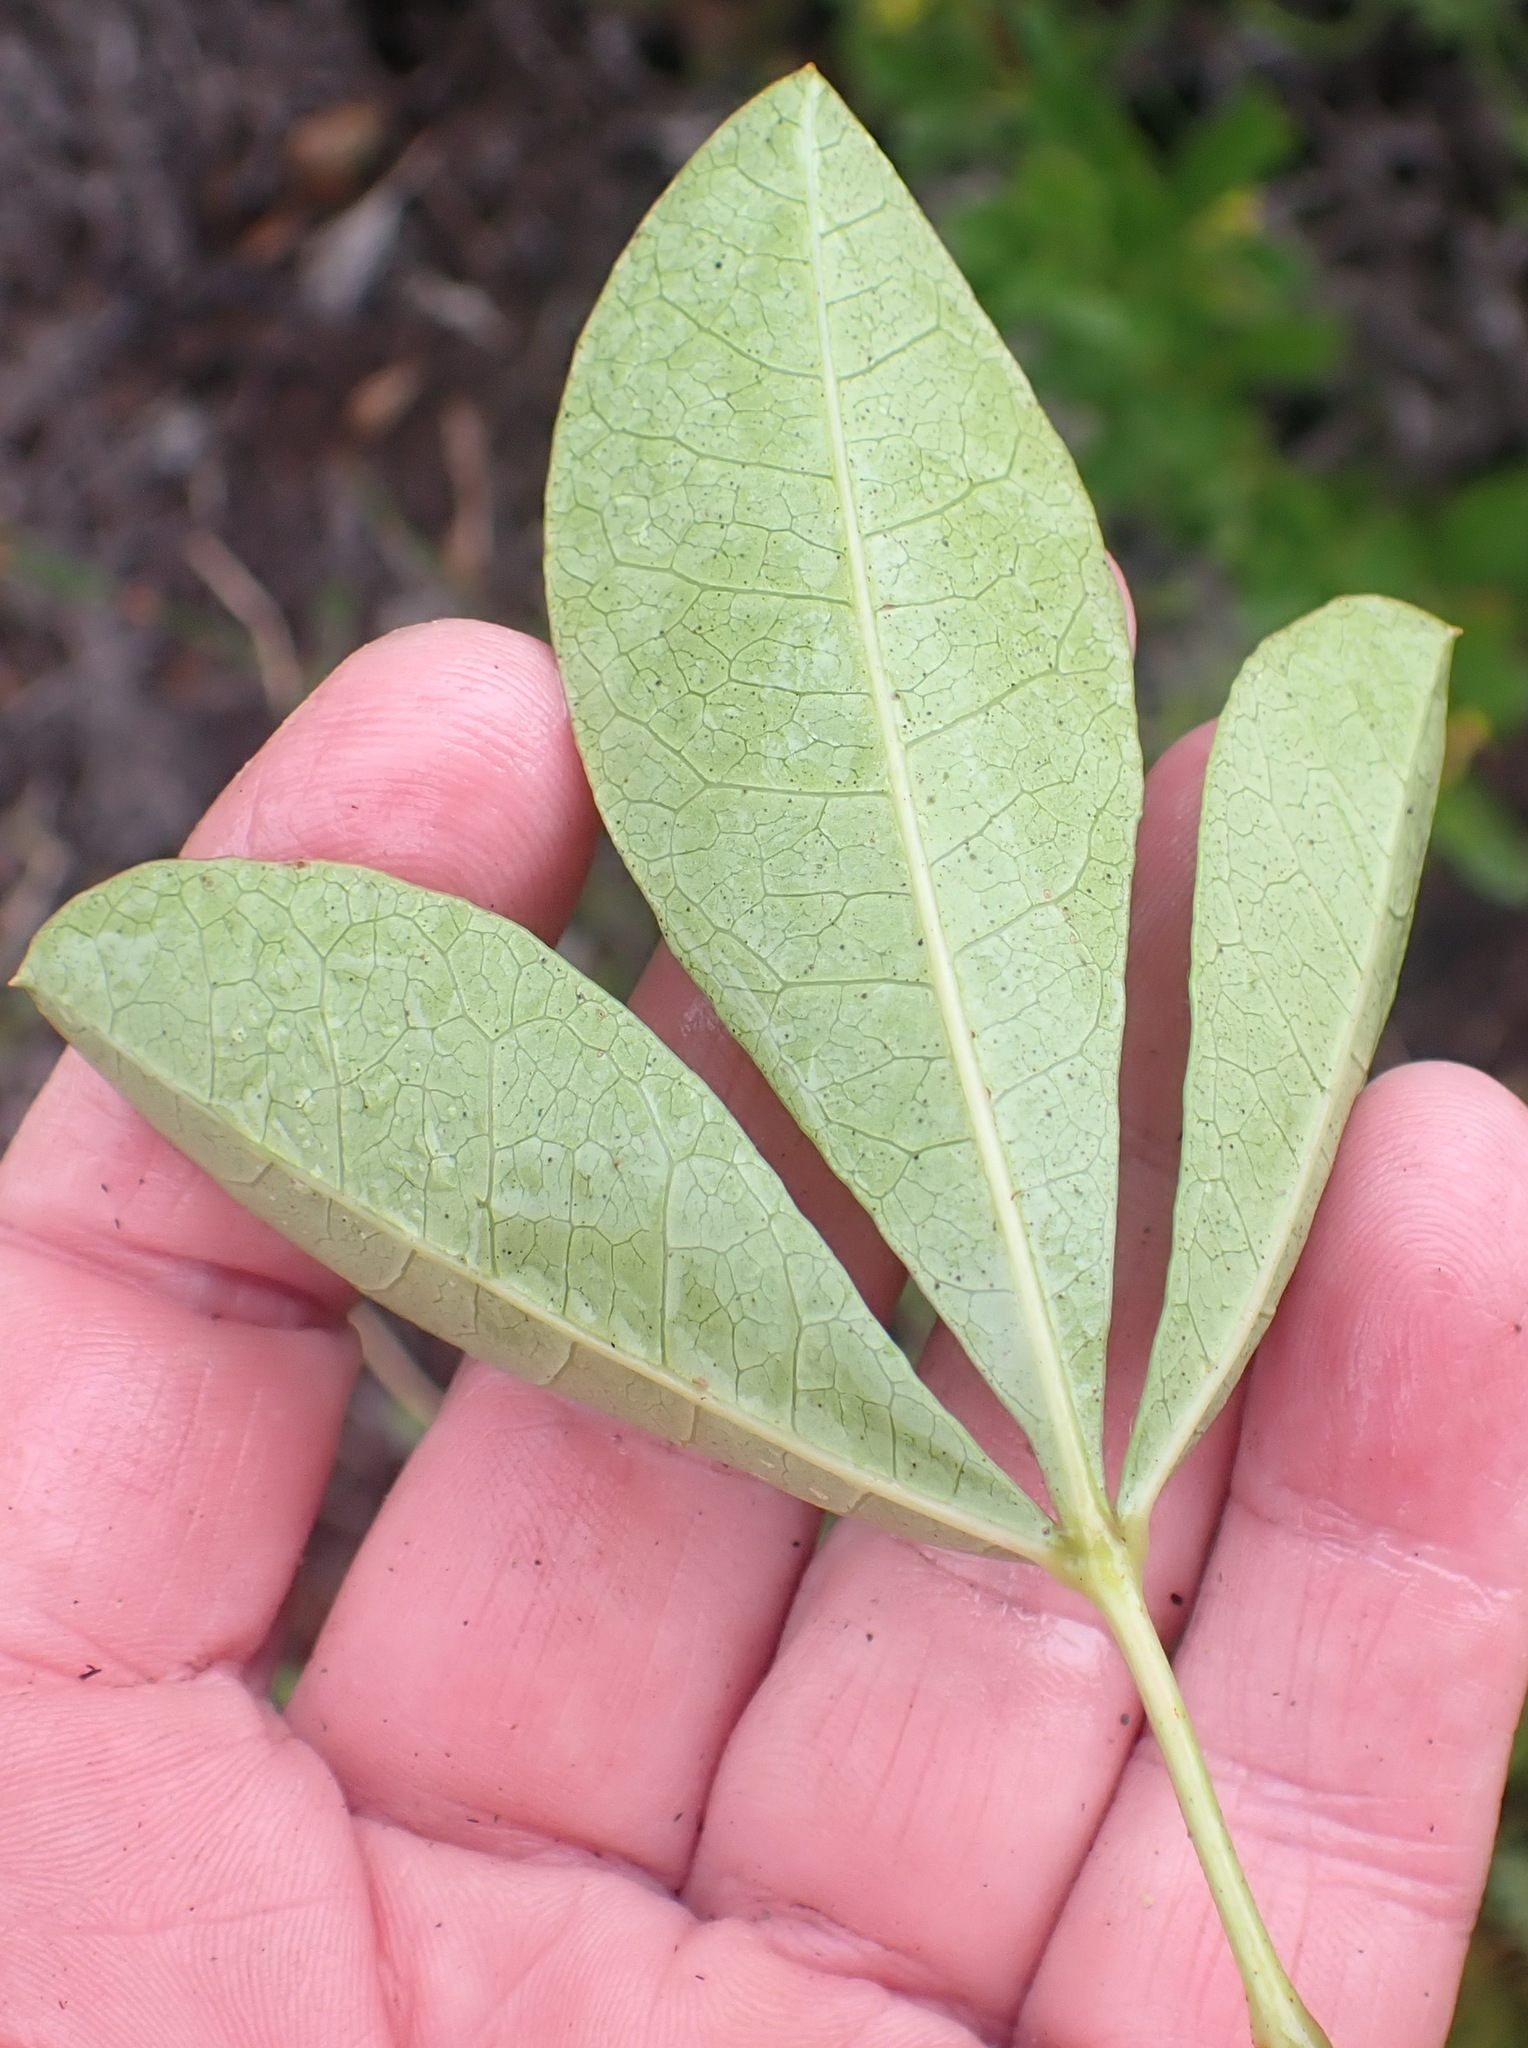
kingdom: Plantae
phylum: Tracheophyta
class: Magnoliopsida
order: Sapindales
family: Anacardiaceae
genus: Searsia
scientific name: Searsia laevigata
